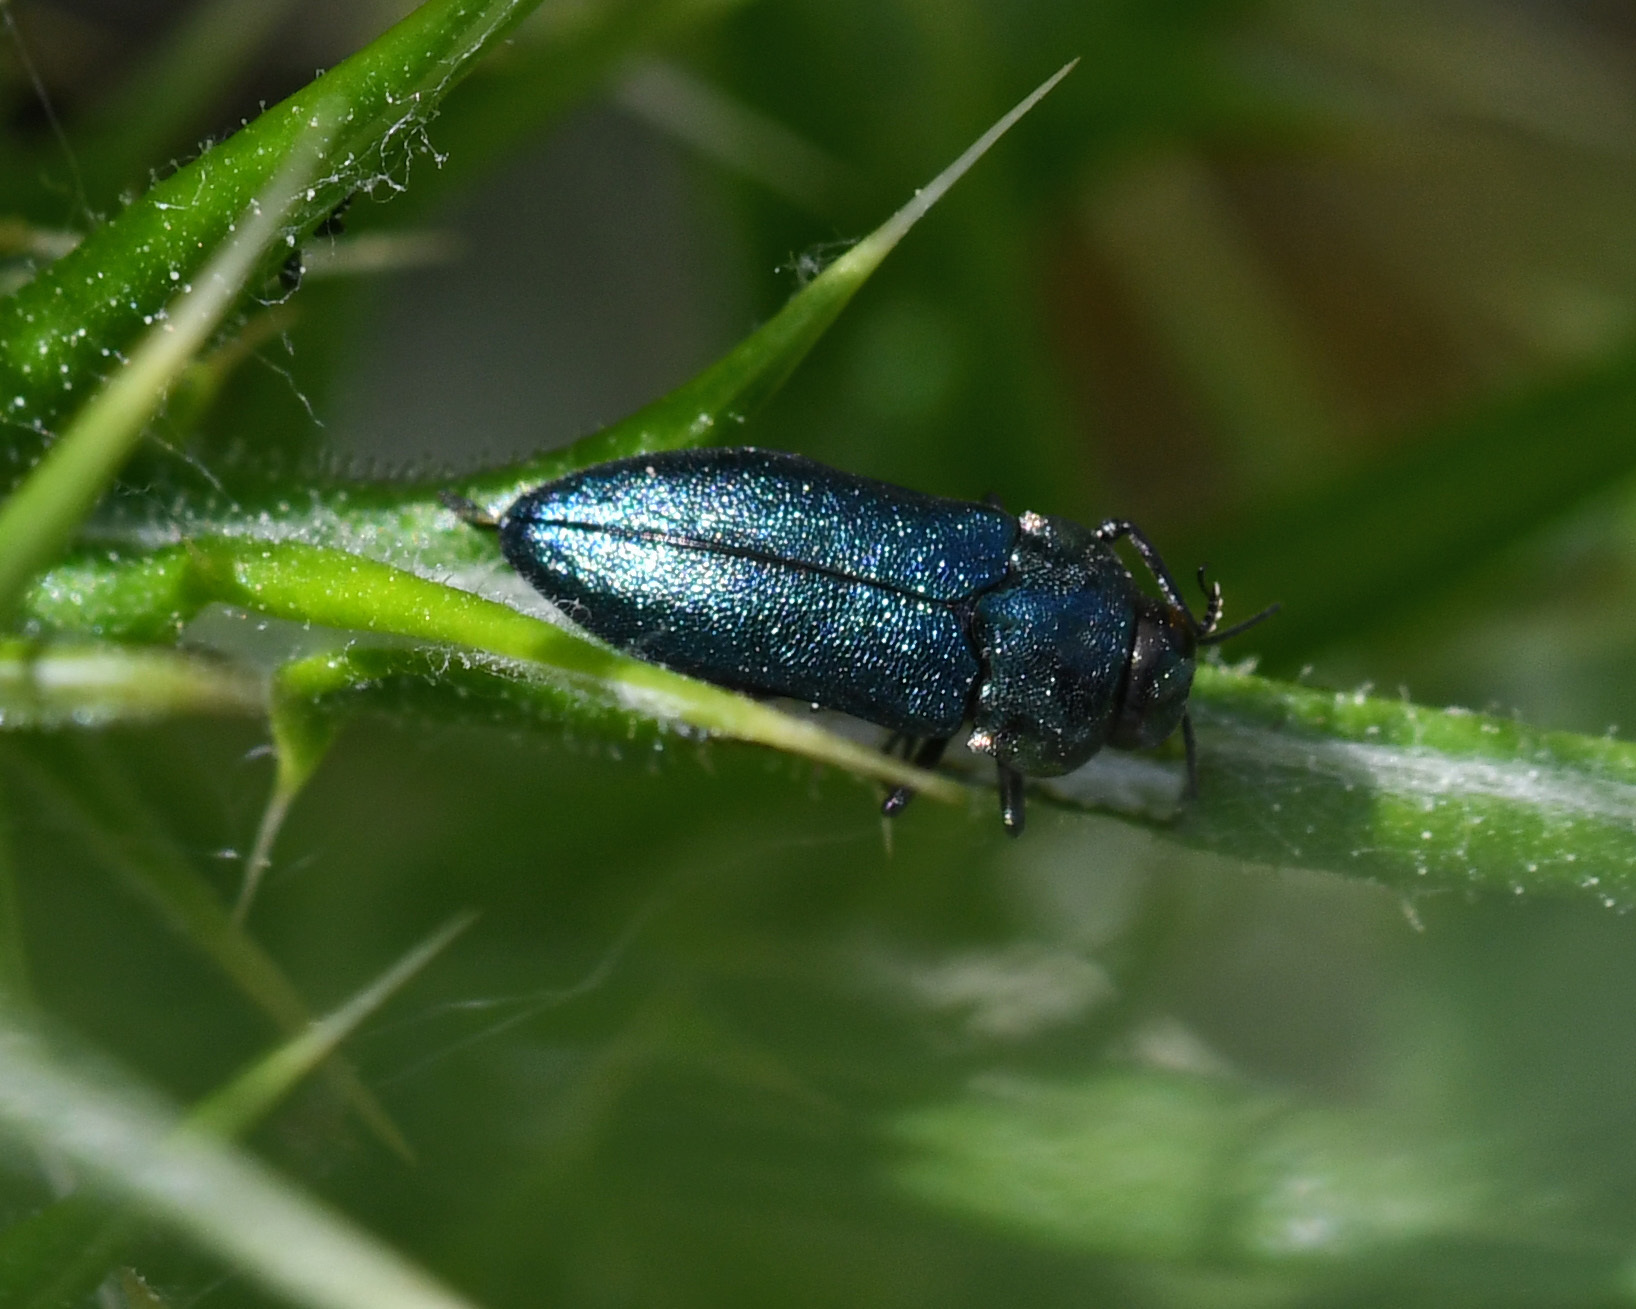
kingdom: Animalia
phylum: Arthropoda
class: Insecta
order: Coleoptera
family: Buprestidae
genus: Meliboeus
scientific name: Meliboeus parvulus
